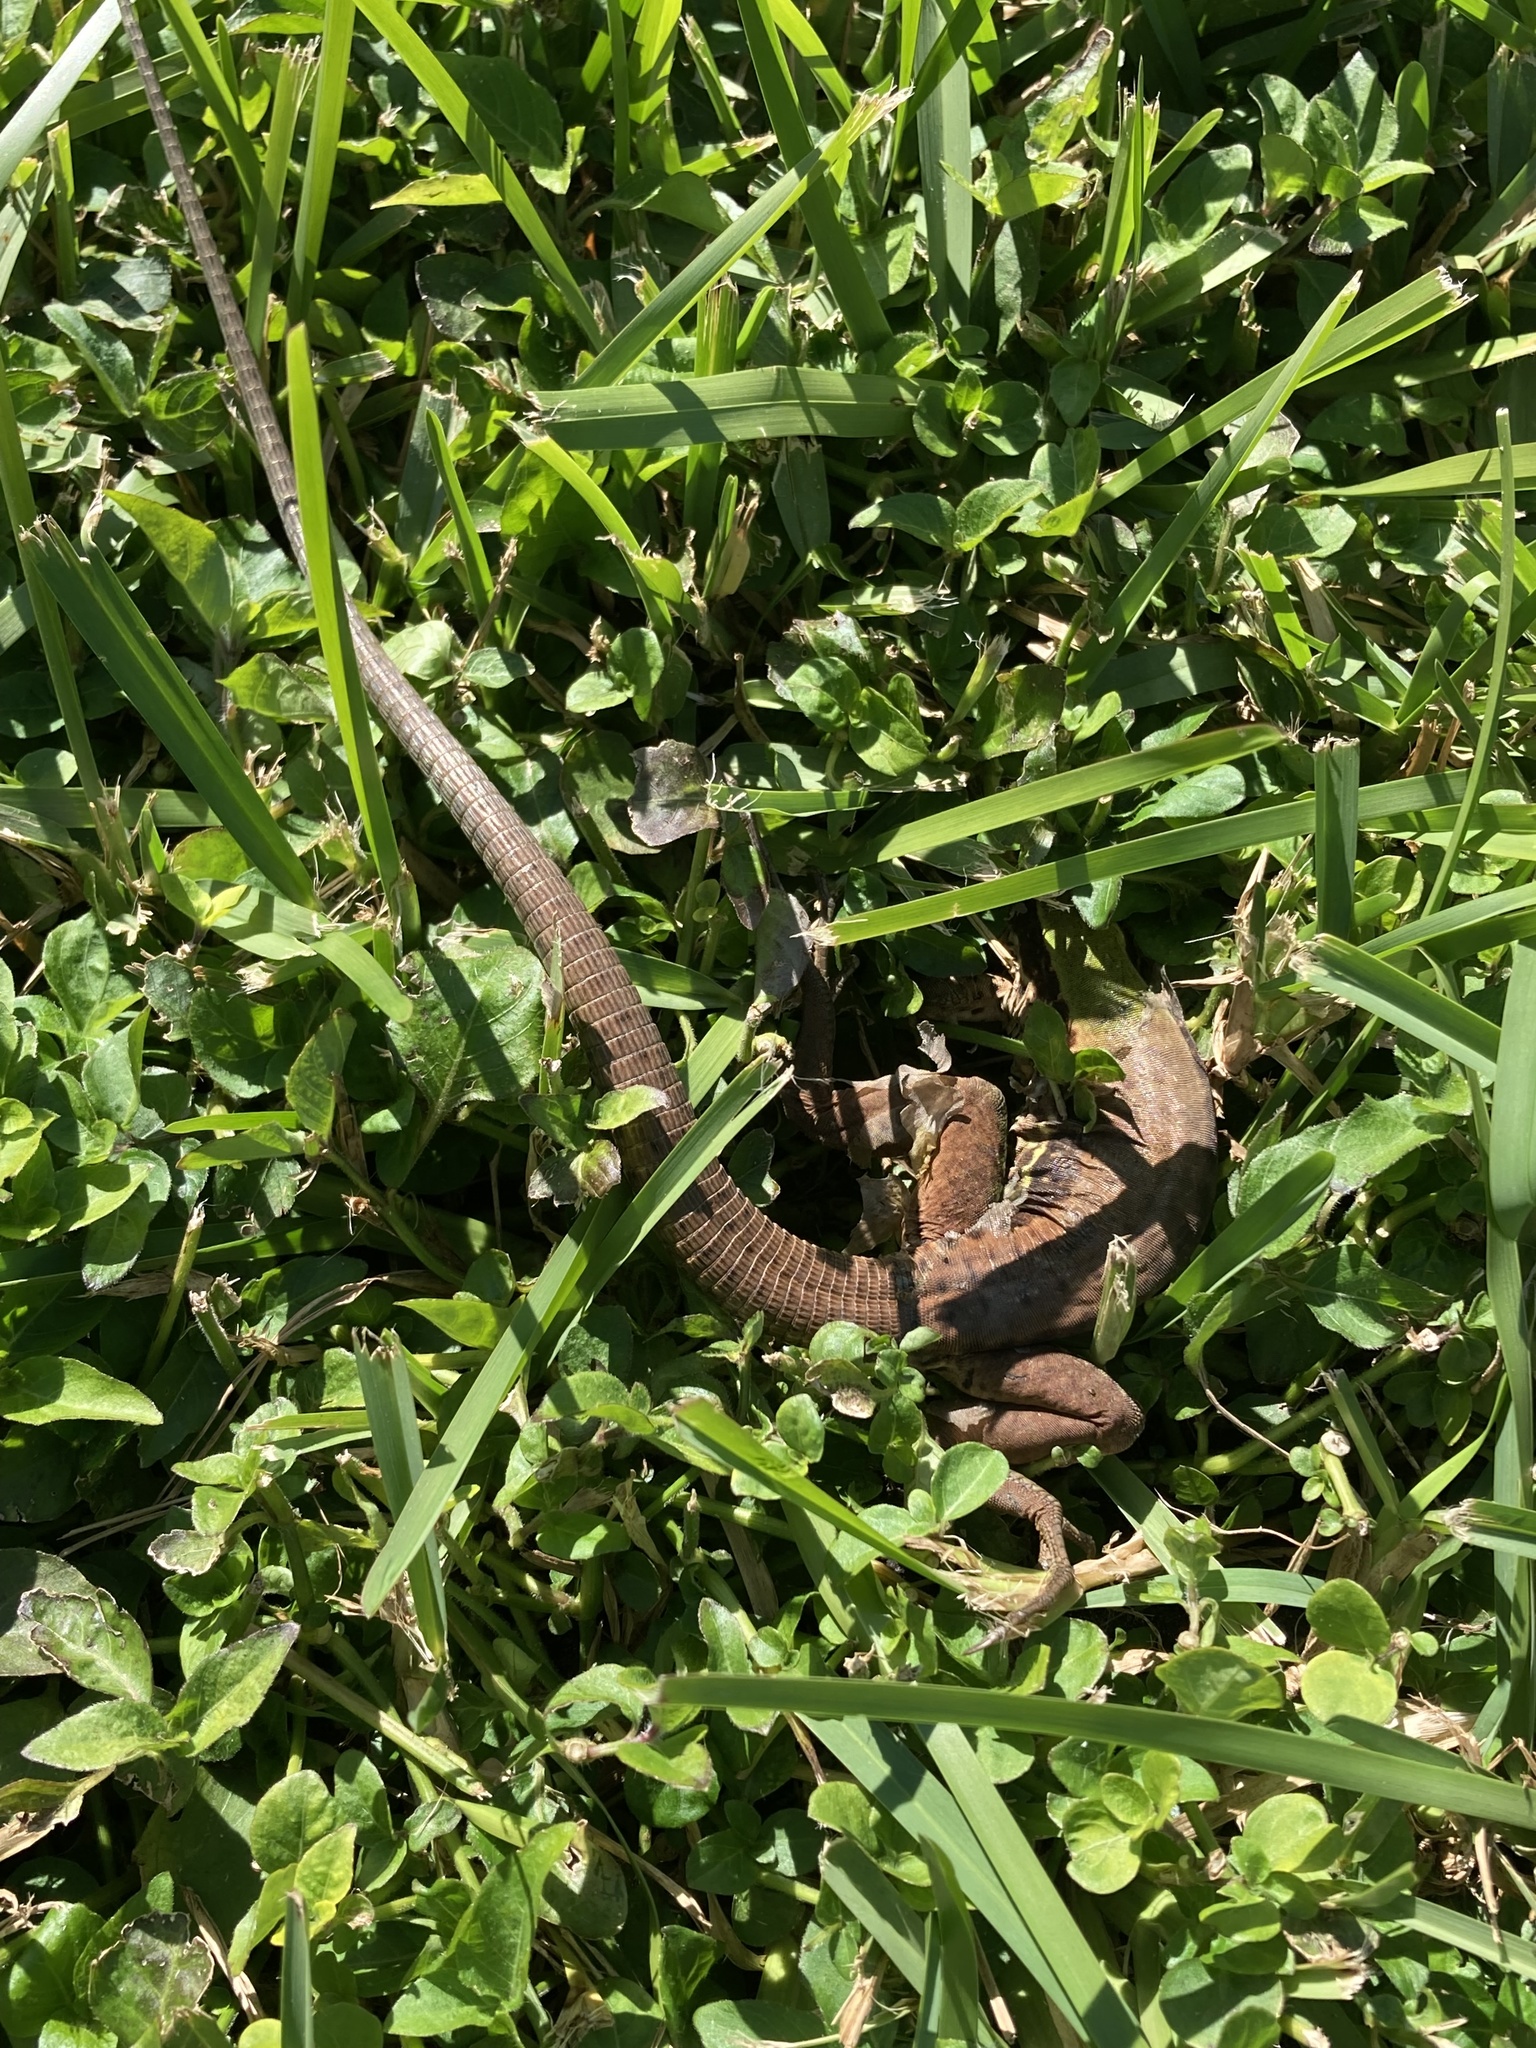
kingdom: Animalia
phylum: Chordata
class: Squamata
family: Teiidae
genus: Ameiva
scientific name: Ameiva ameiva
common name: Giant ameiva
